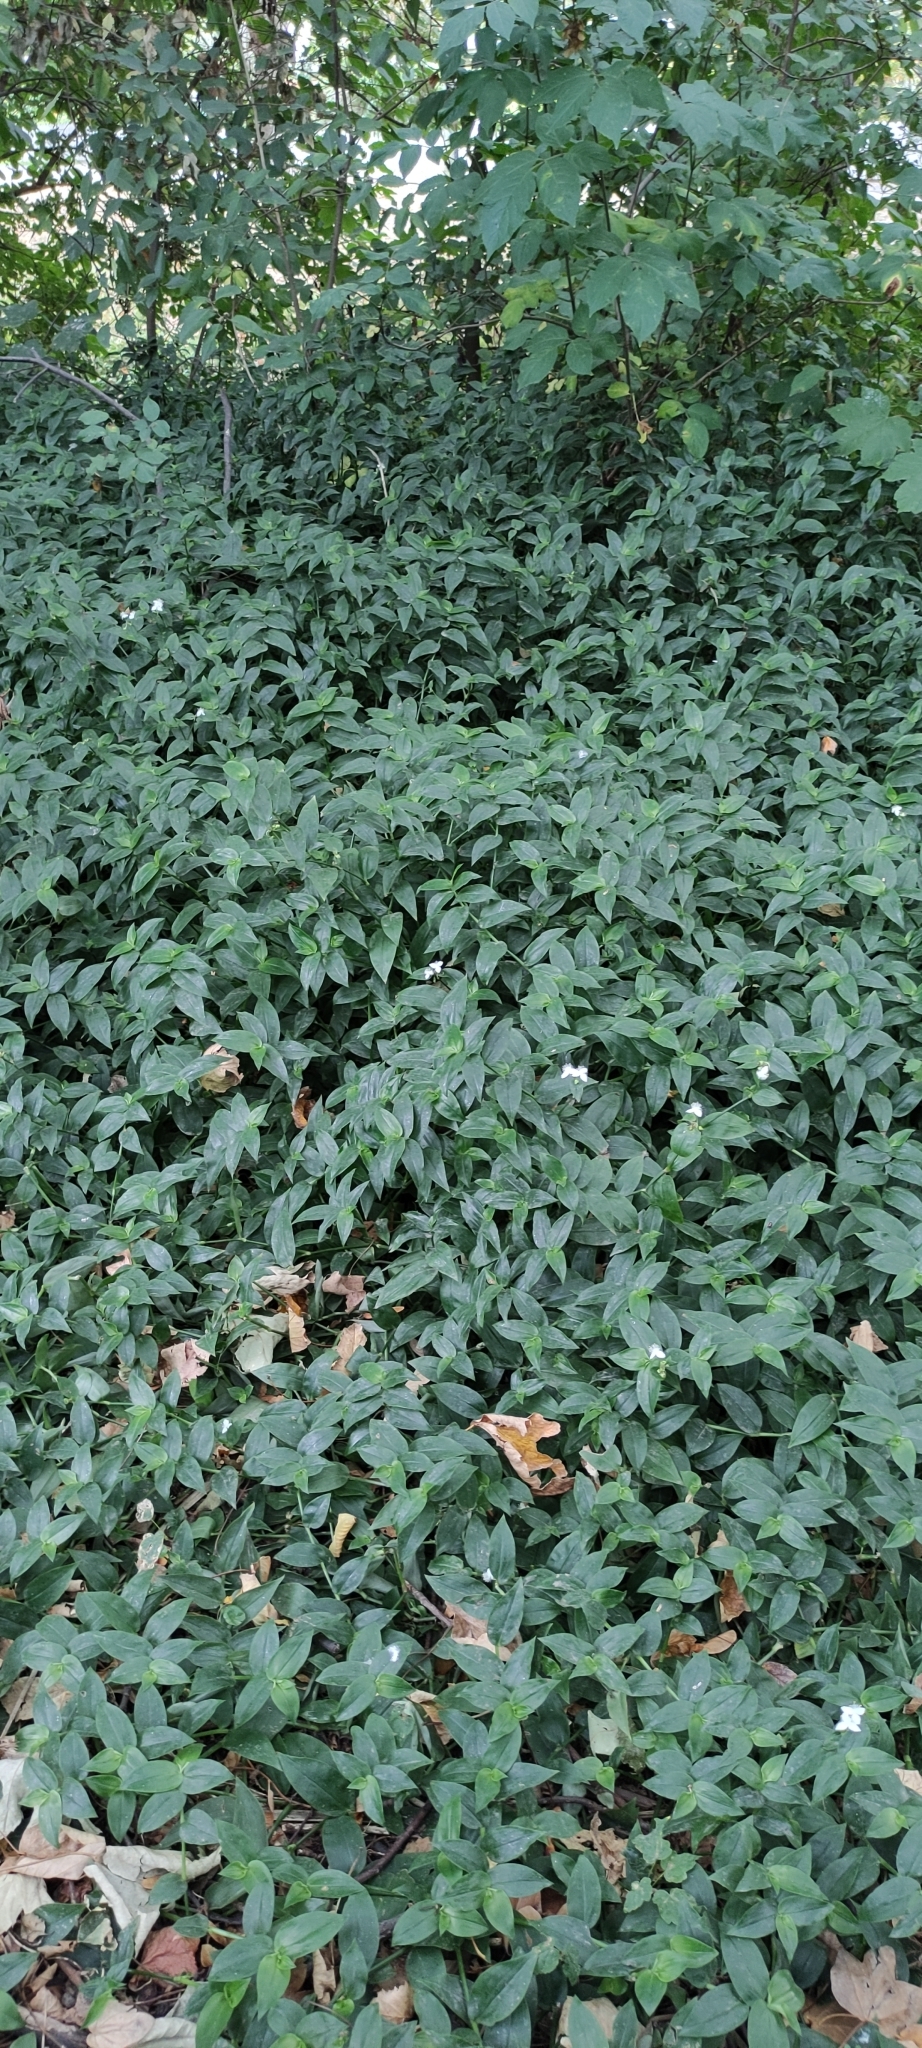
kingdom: Plantae
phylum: Tracheophyta
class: Liliopsida
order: Commelinales
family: Commelinaceae
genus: Tradescantia
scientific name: Tradescantia fluminensis
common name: Wandering-jew
